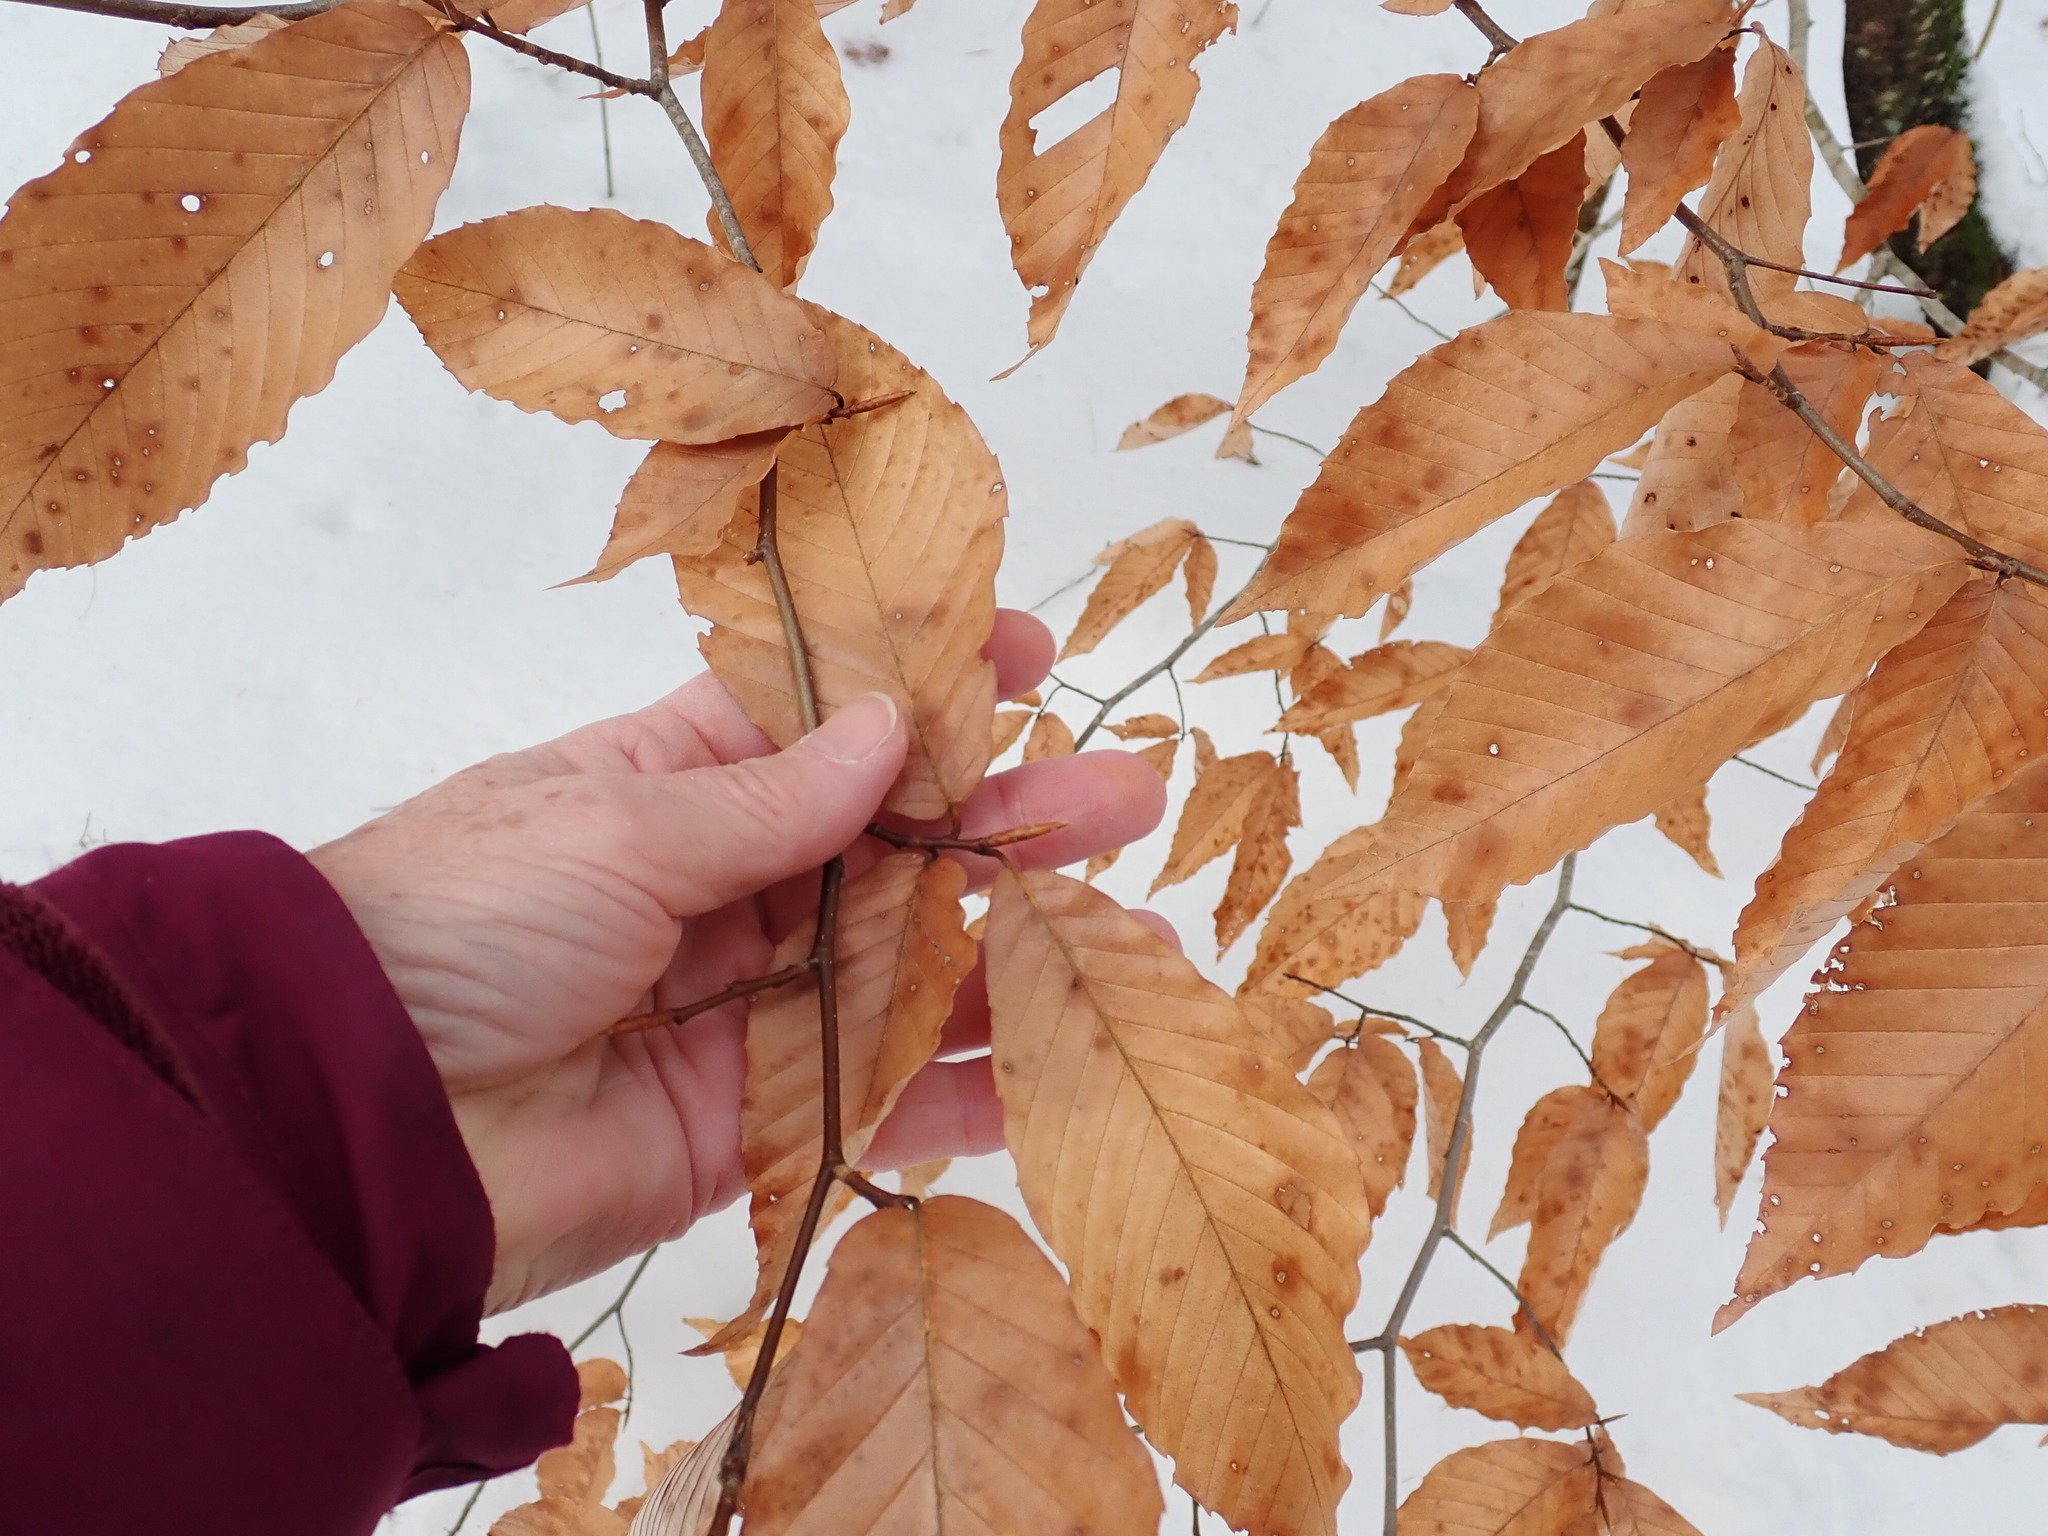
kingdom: Plantae
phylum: Tracheophyta
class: Magnoliopsida
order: Fagales
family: Fagaceae
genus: Fagus
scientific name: Fagus grandifolia
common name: American beech
